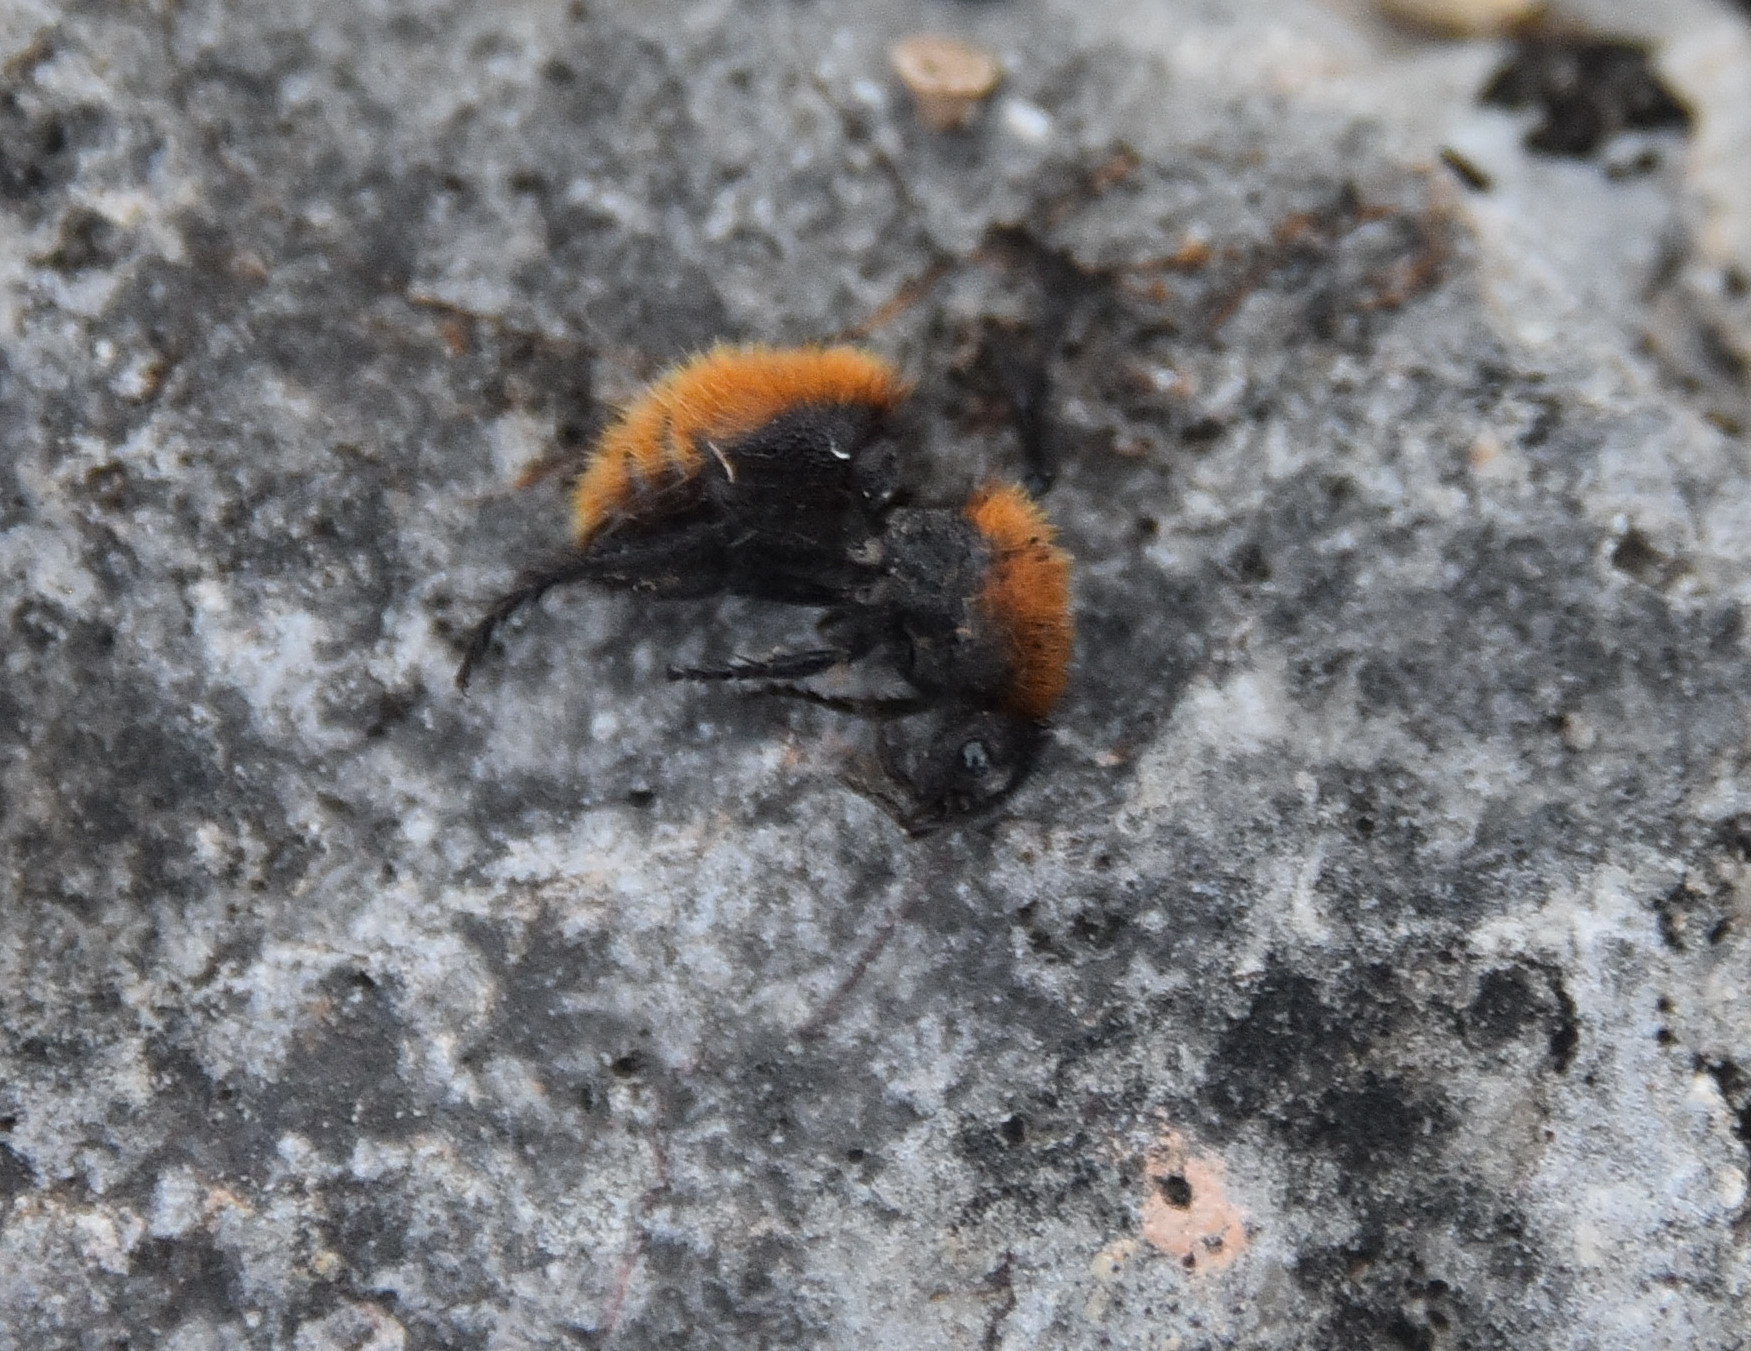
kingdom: Animalia
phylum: Arthropoda
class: Insecta
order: Hymenoptera
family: Mutillidae
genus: Dasymutilla
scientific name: Dasymutilla
